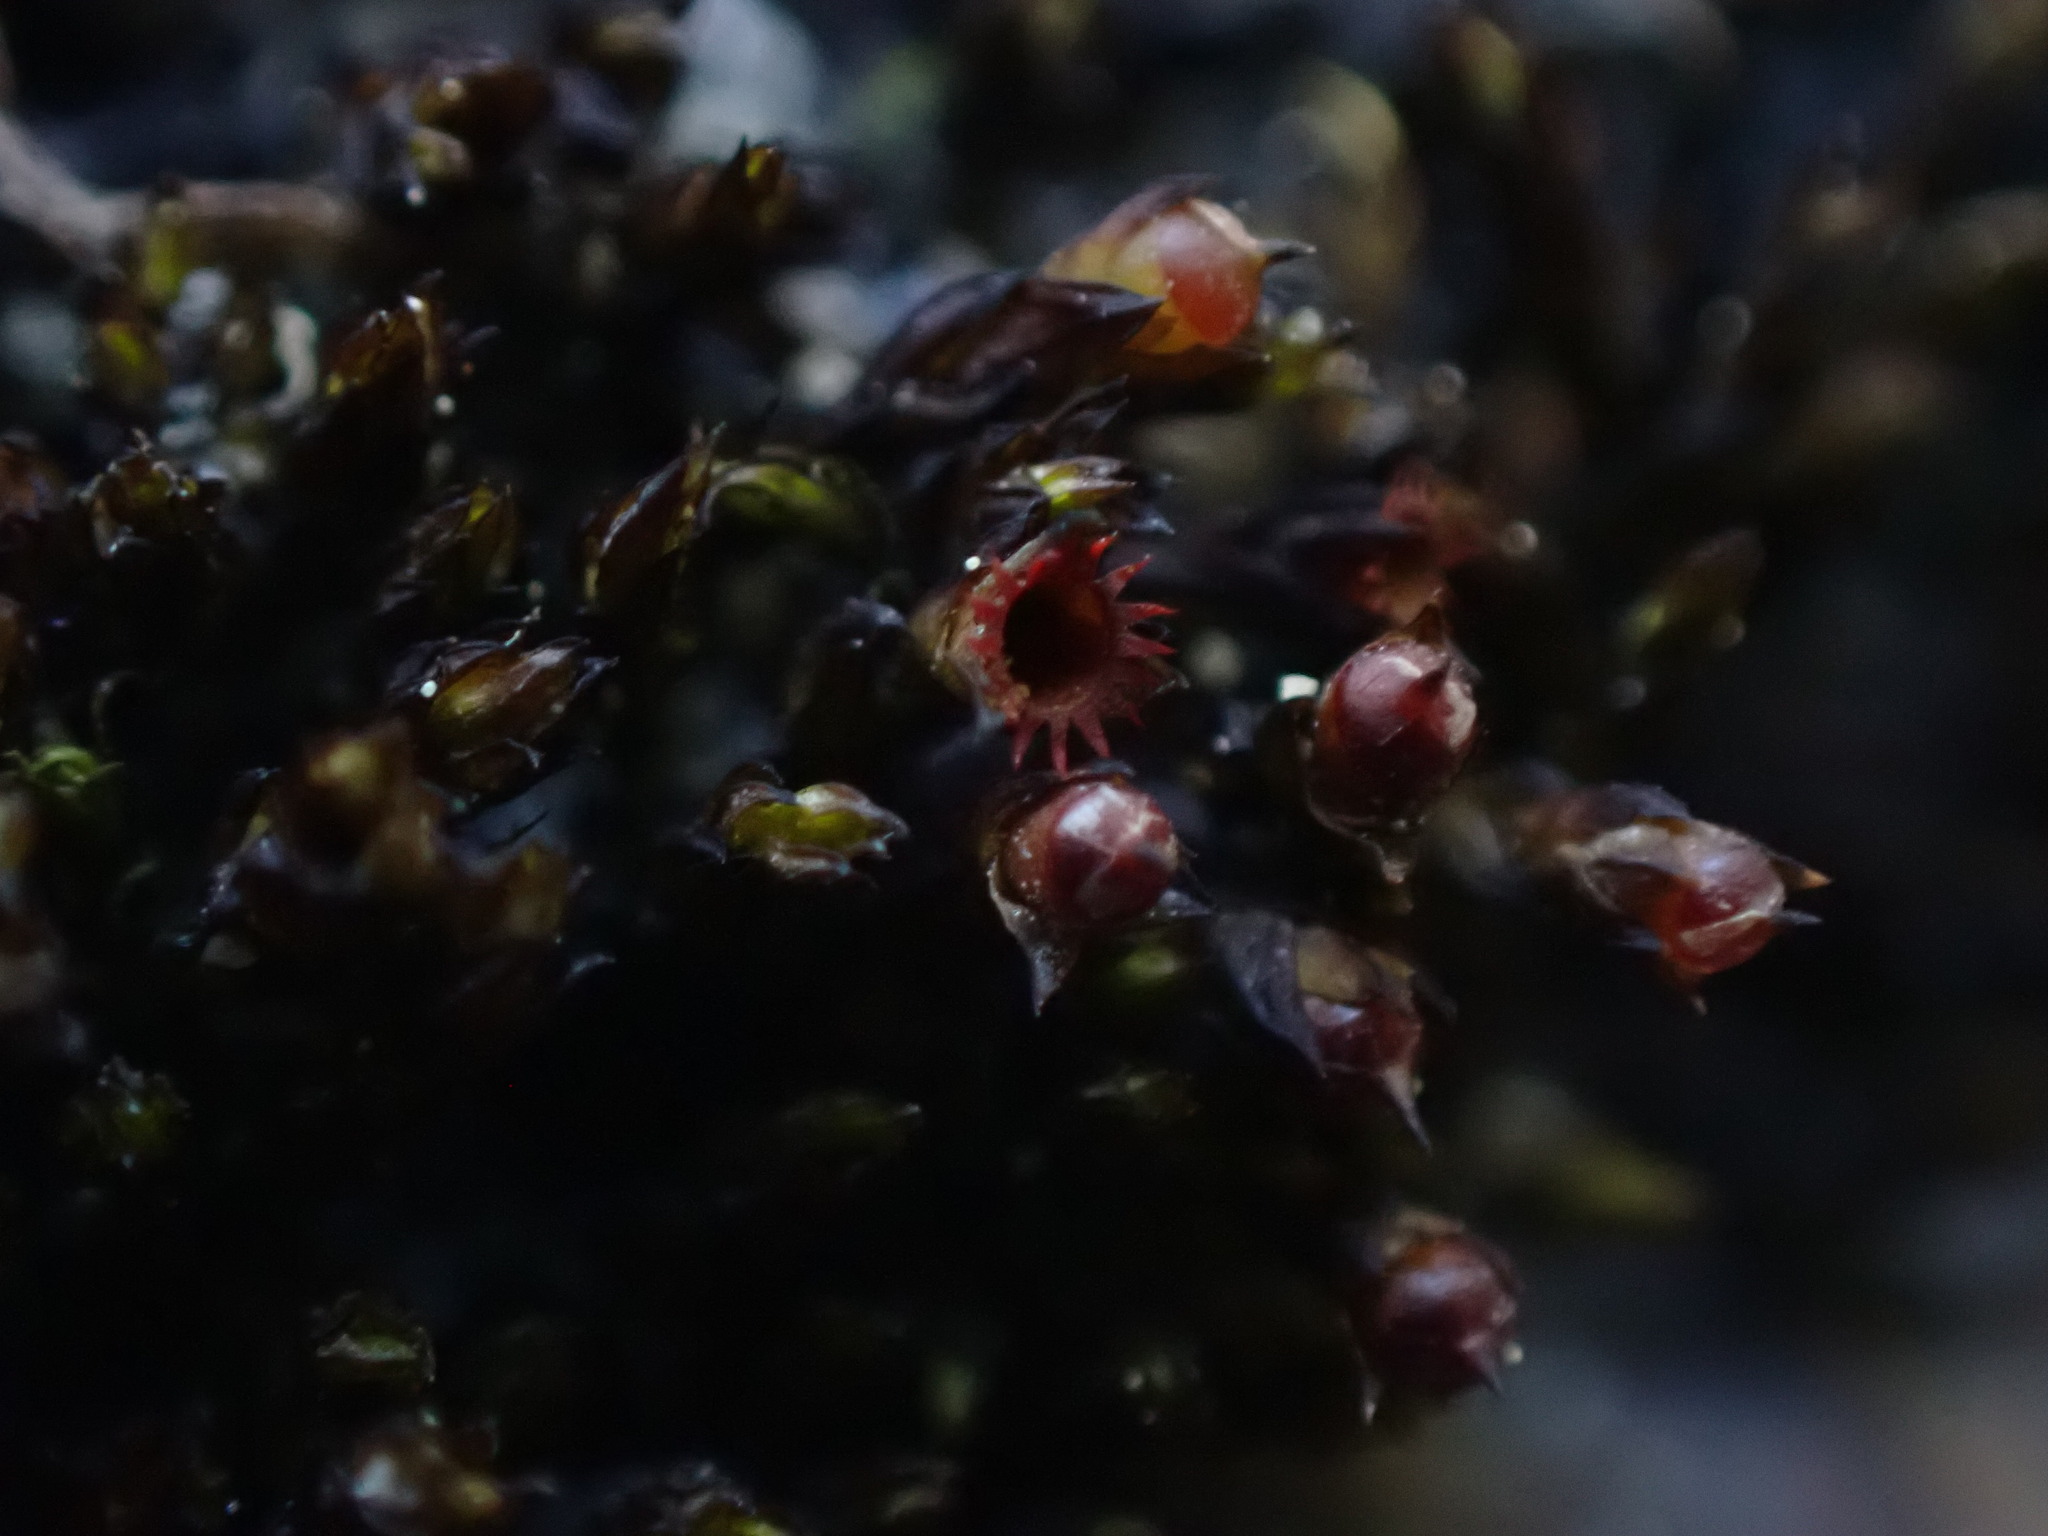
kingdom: Plantae
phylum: Bryophyta
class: Bryopsida
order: Grimmiales
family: Grimmiaceae
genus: Schistidium
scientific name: Schistidium rivulare
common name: River bloom moss
